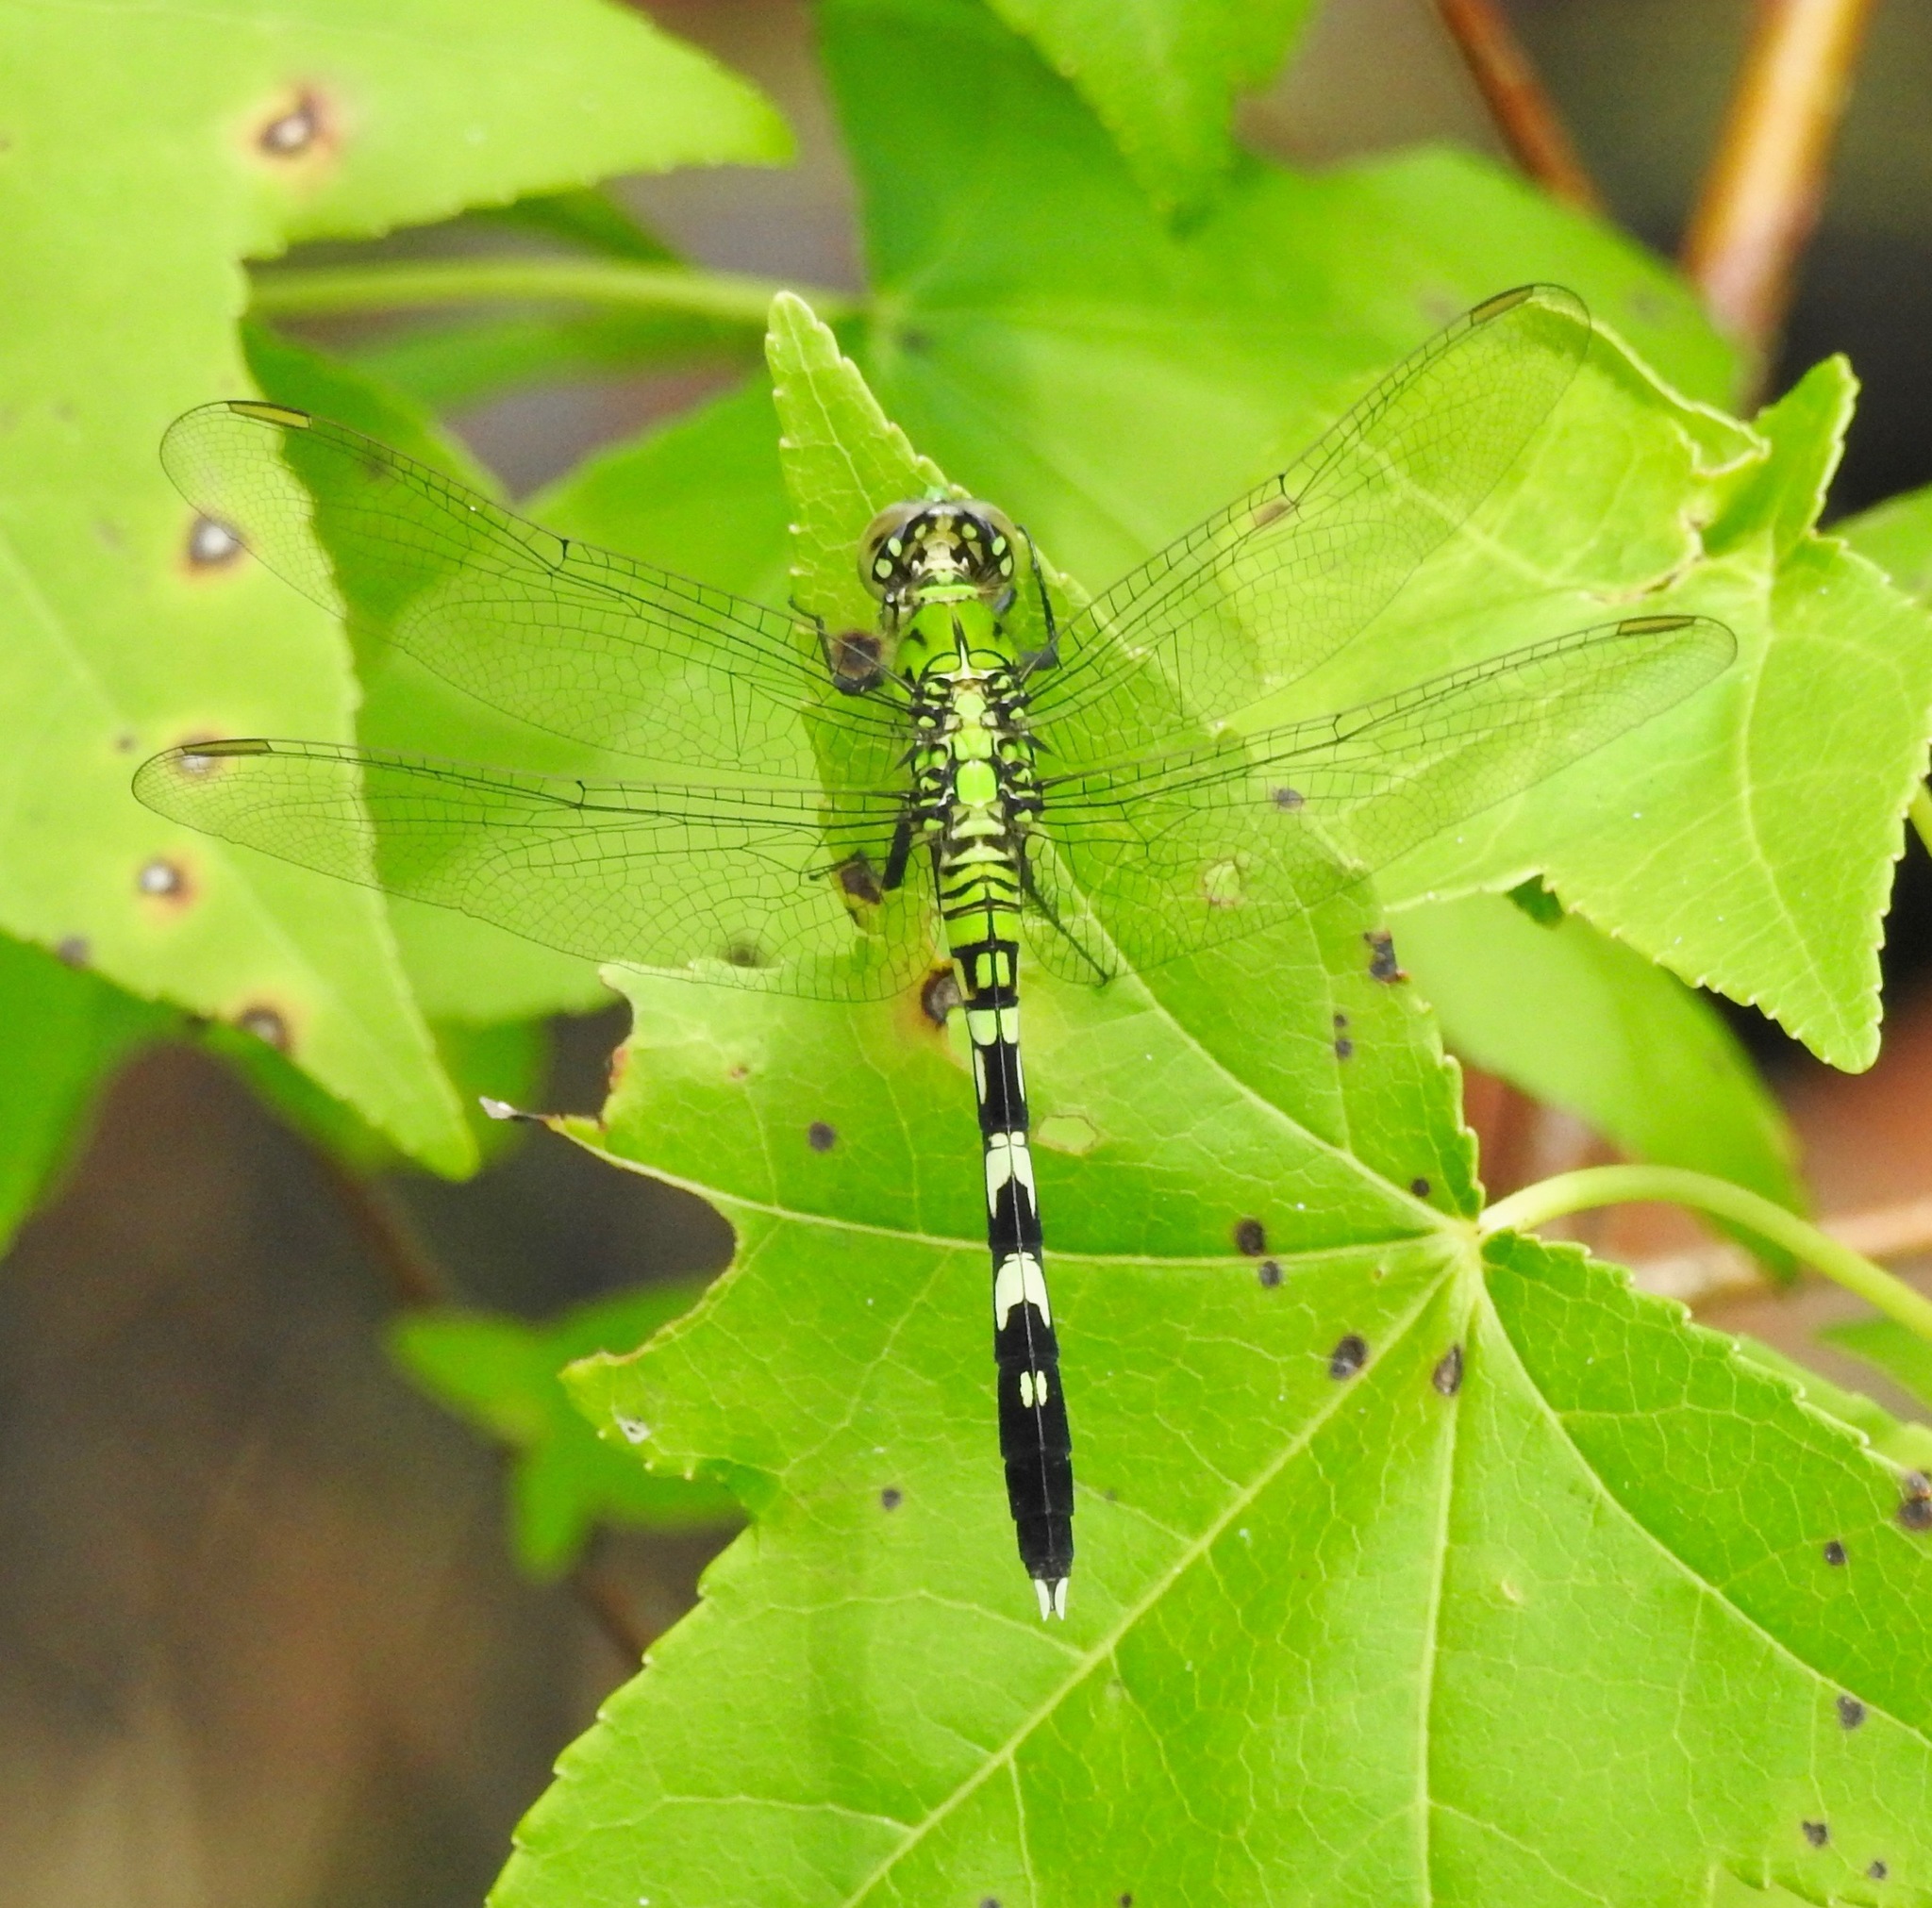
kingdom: Animalia
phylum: Arthropoda
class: Insecta
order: Odonata
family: Libellulidae
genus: Erythemis
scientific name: Erythemis simplicicollis
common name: Eastern pondhawk
